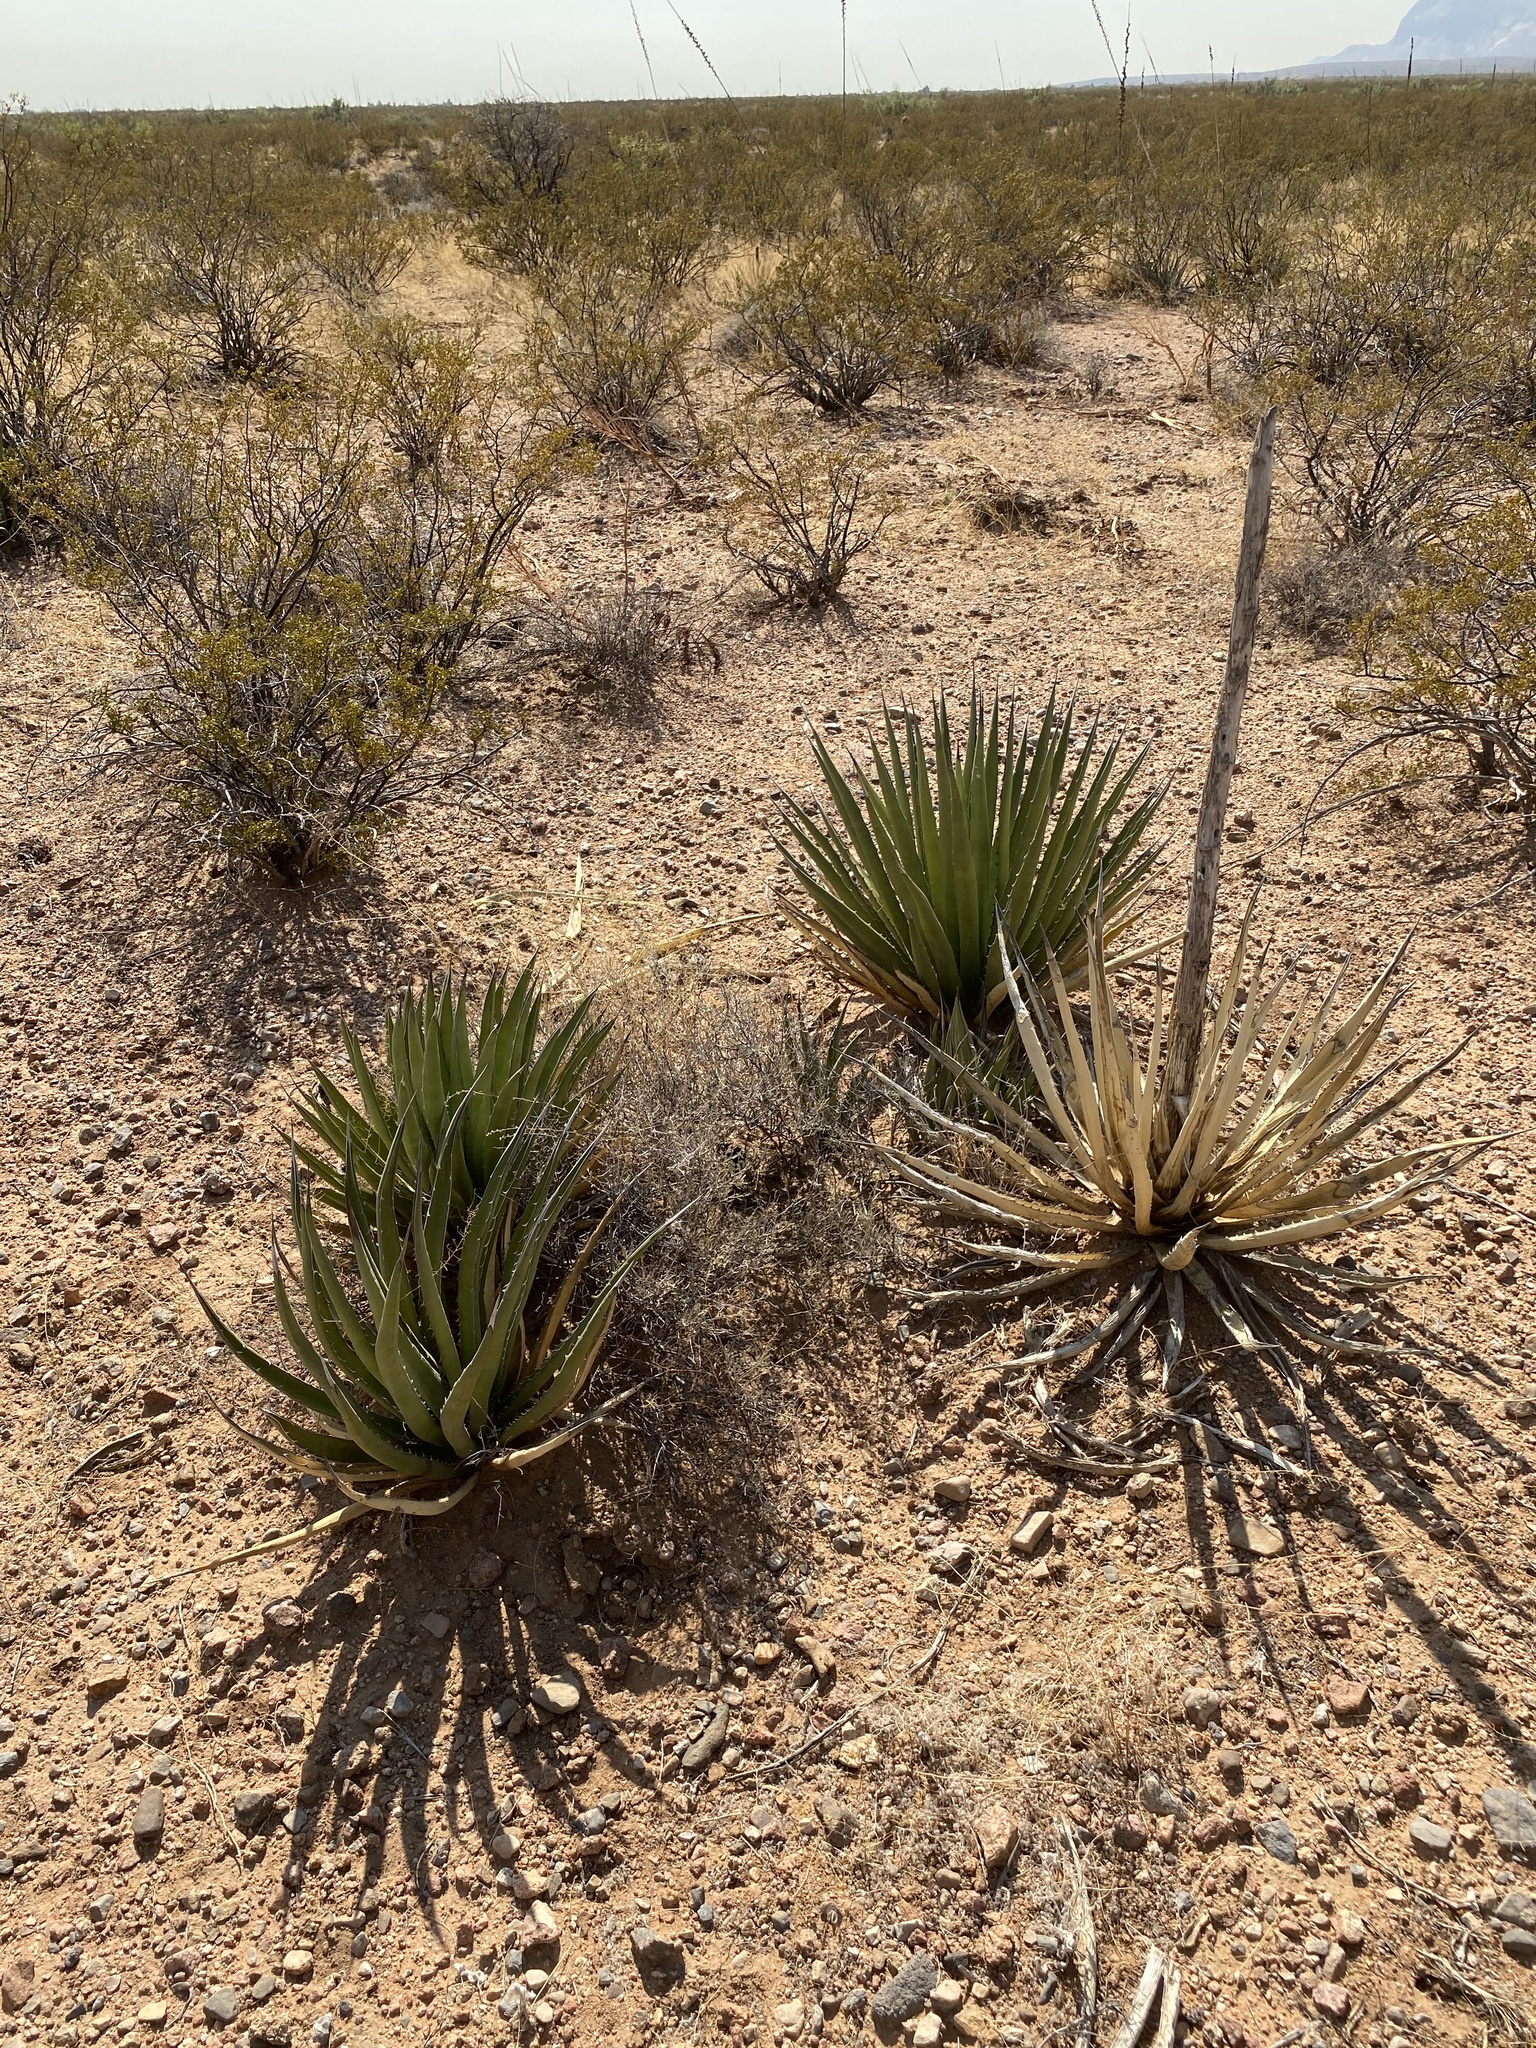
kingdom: Plantae
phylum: Tracheophyta
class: Liliopsida
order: Asparagales
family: Asparagaceae
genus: Agave
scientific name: Agave lechuguilla
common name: Lecheguilla agave
